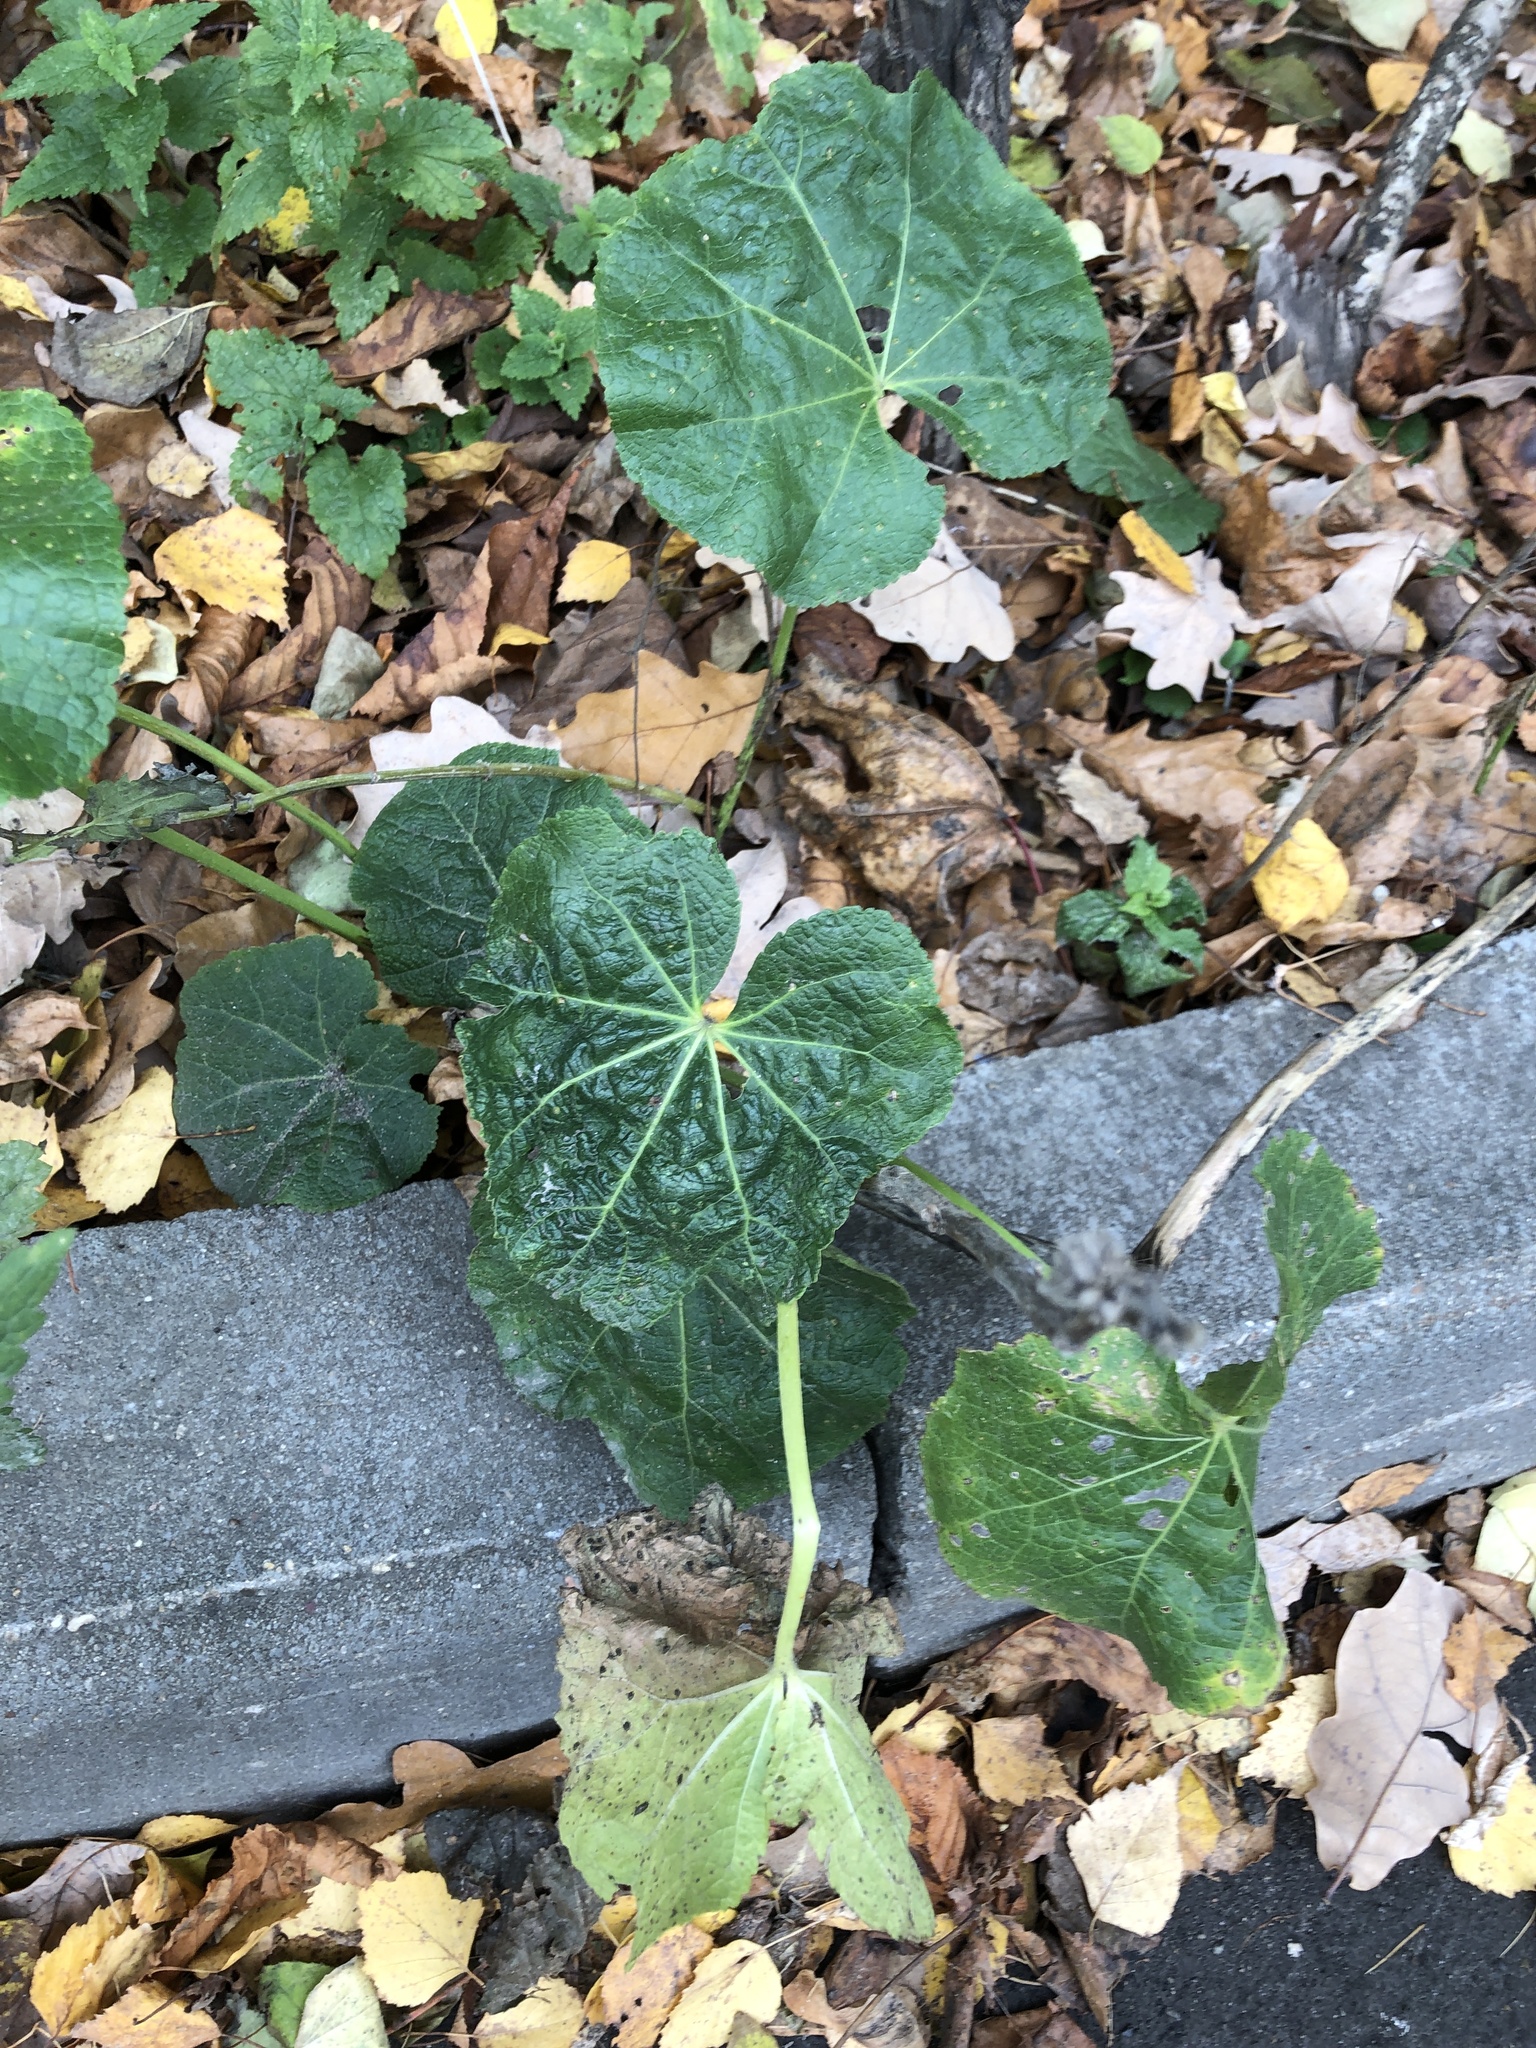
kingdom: Plantae
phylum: Tracheophyta
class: Magnoliopsida
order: Malvales
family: Malvaceae
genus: Alcea
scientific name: Alcea rosea
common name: Hollyhock
